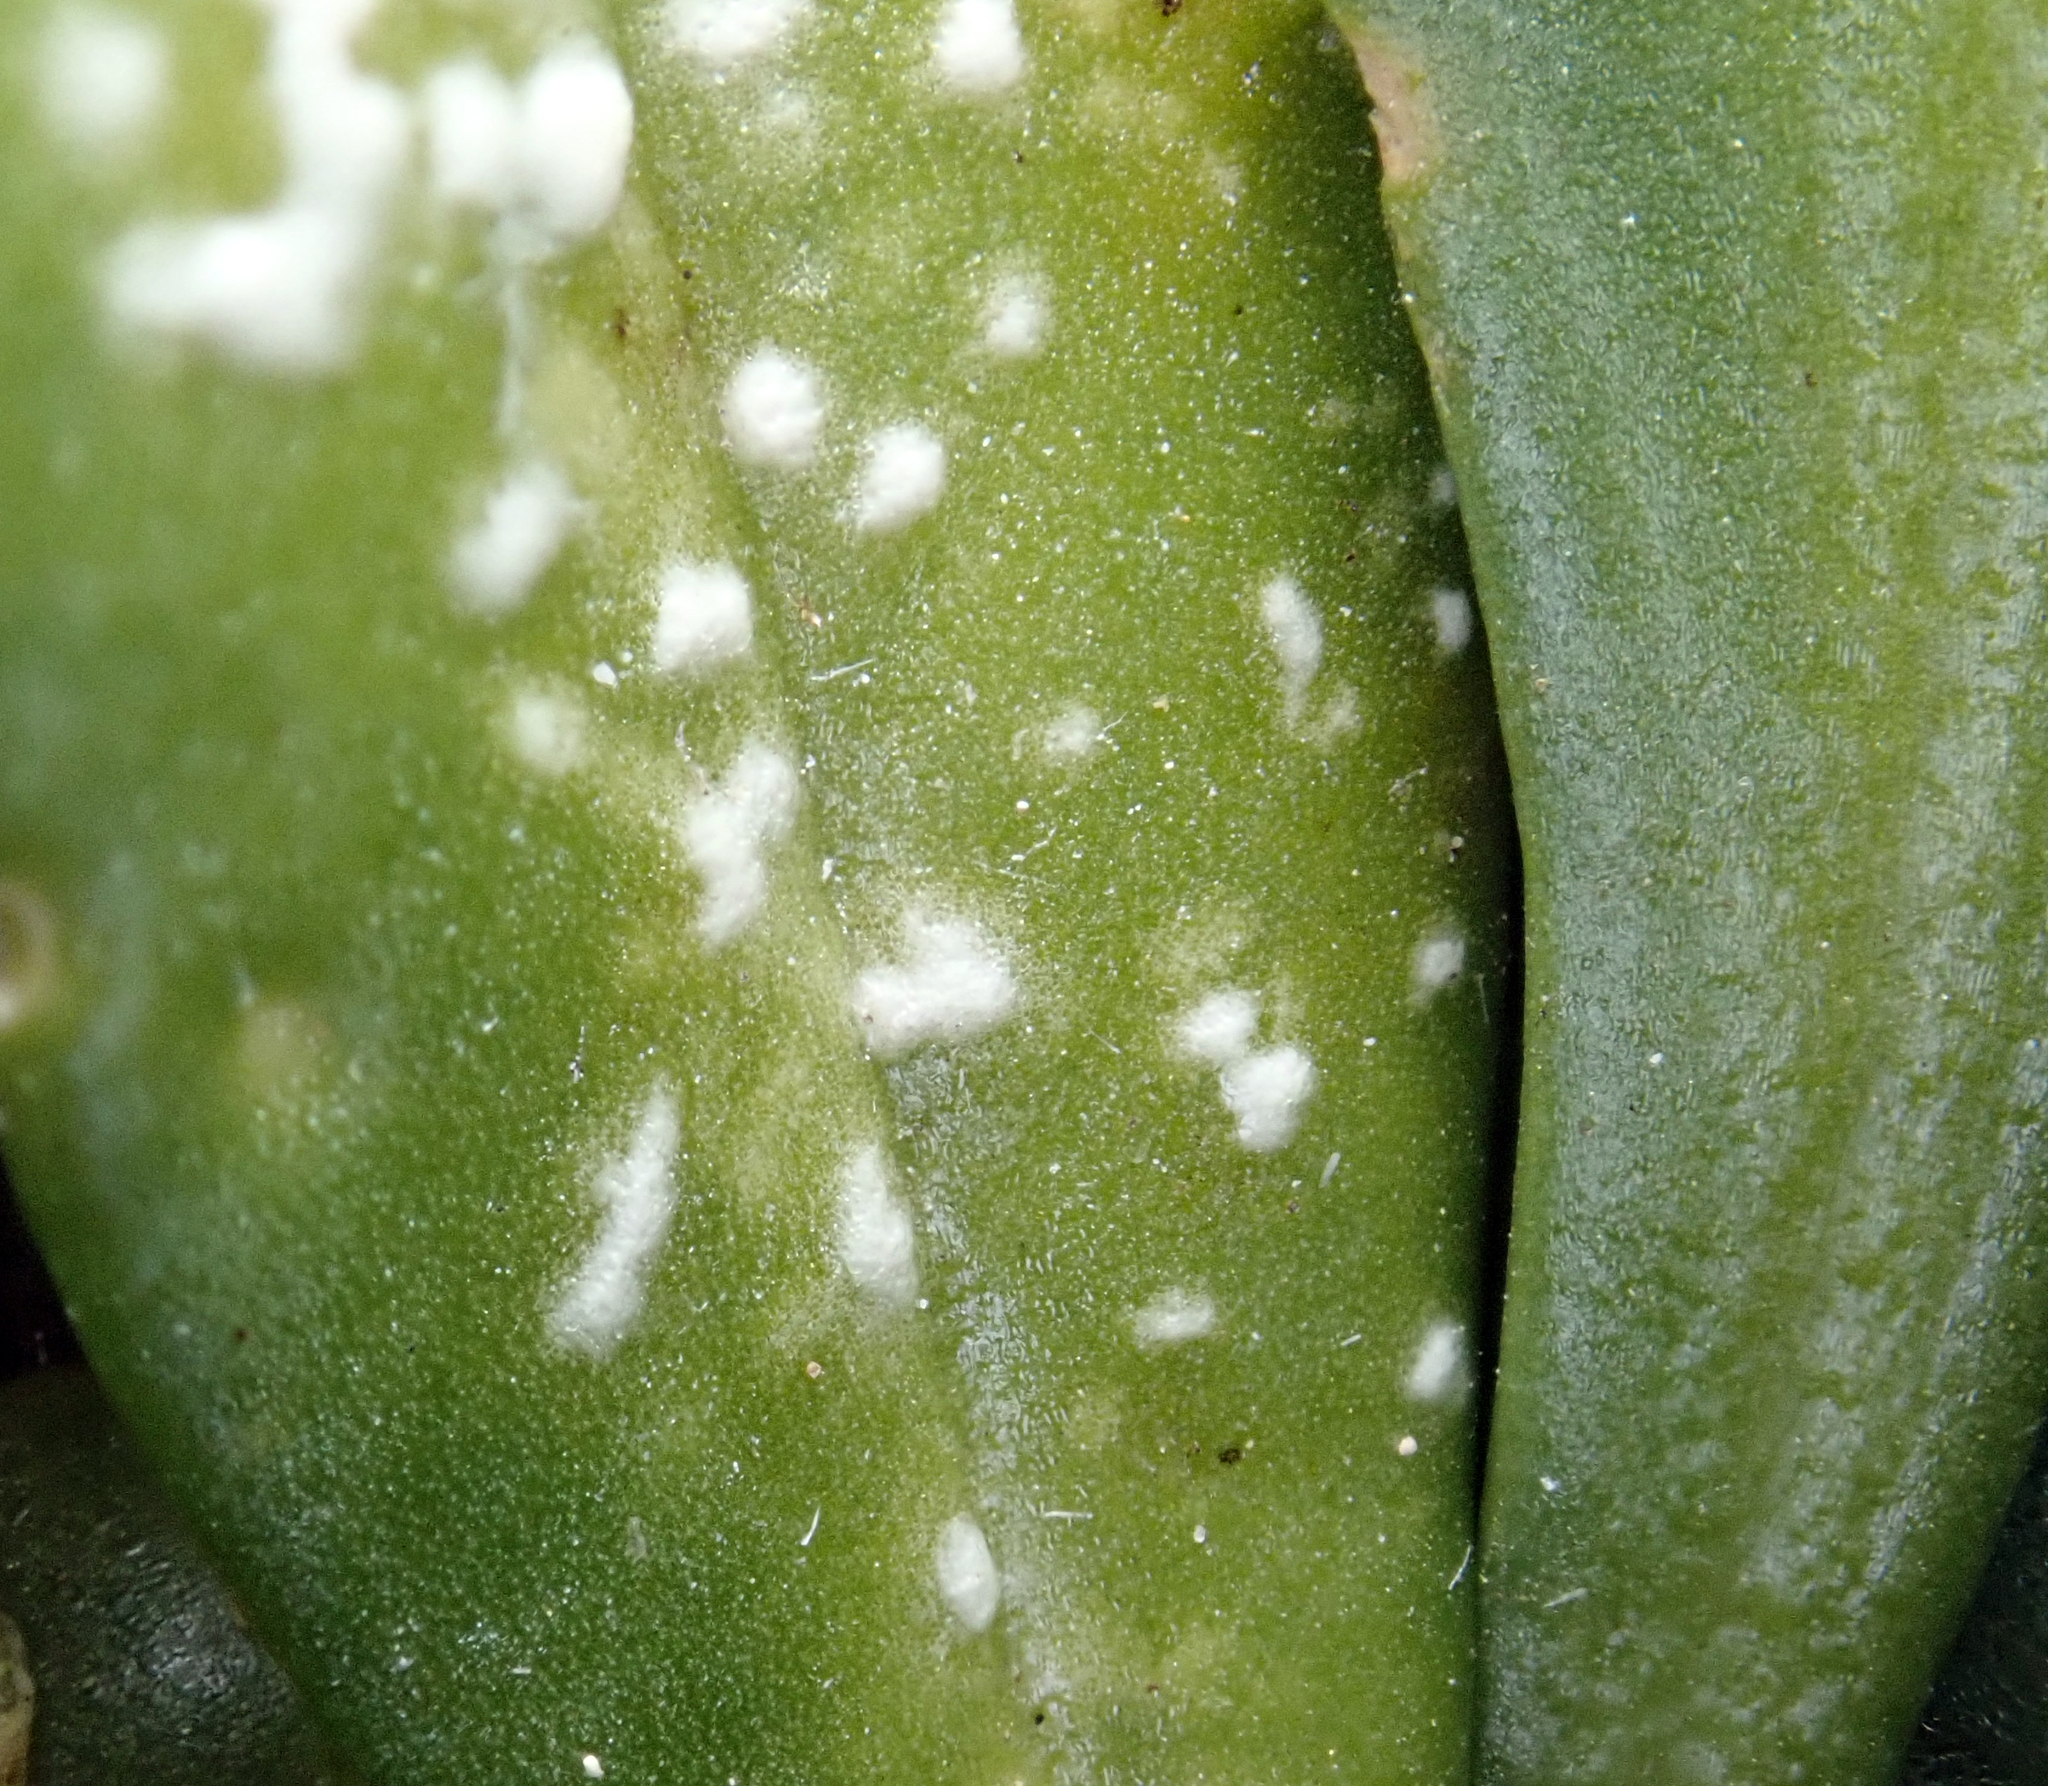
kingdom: Chromista
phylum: Oomycota
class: Peronosporea
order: Albuginales
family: Albuginaceae
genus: Albugo
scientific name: Albugo lepidii
